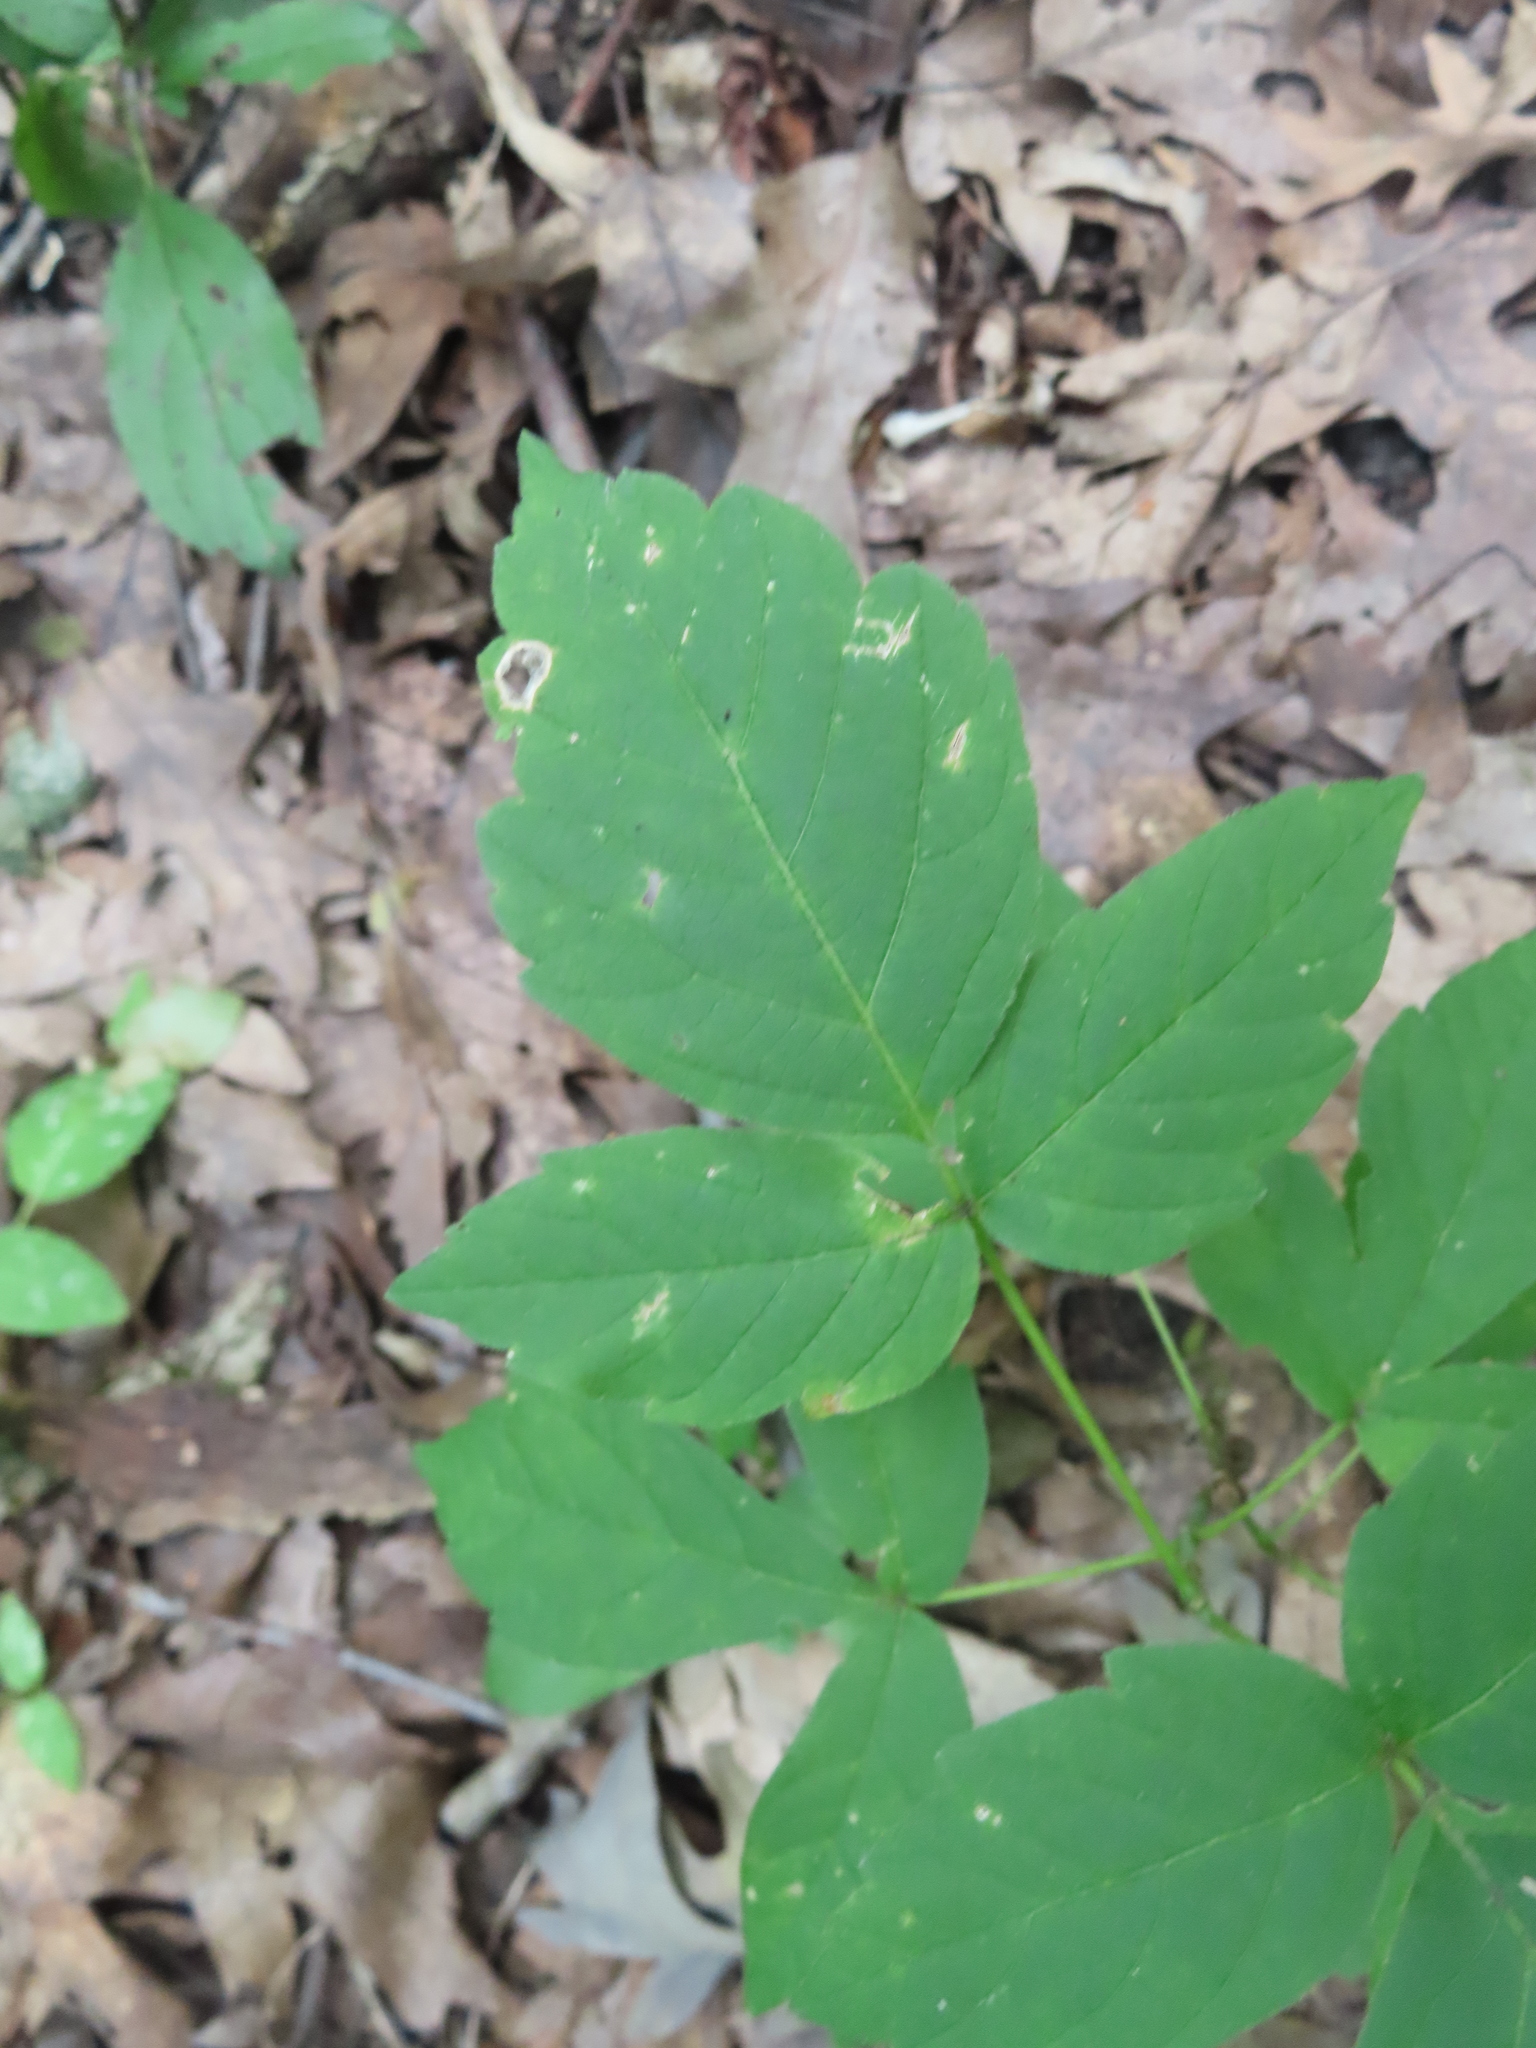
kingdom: Plantae
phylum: Tracheophyta
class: Magnoliopsida
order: Sapindales
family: Sapindaceae
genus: Acer
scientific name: Acer negundo
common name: Ashleaf maple
